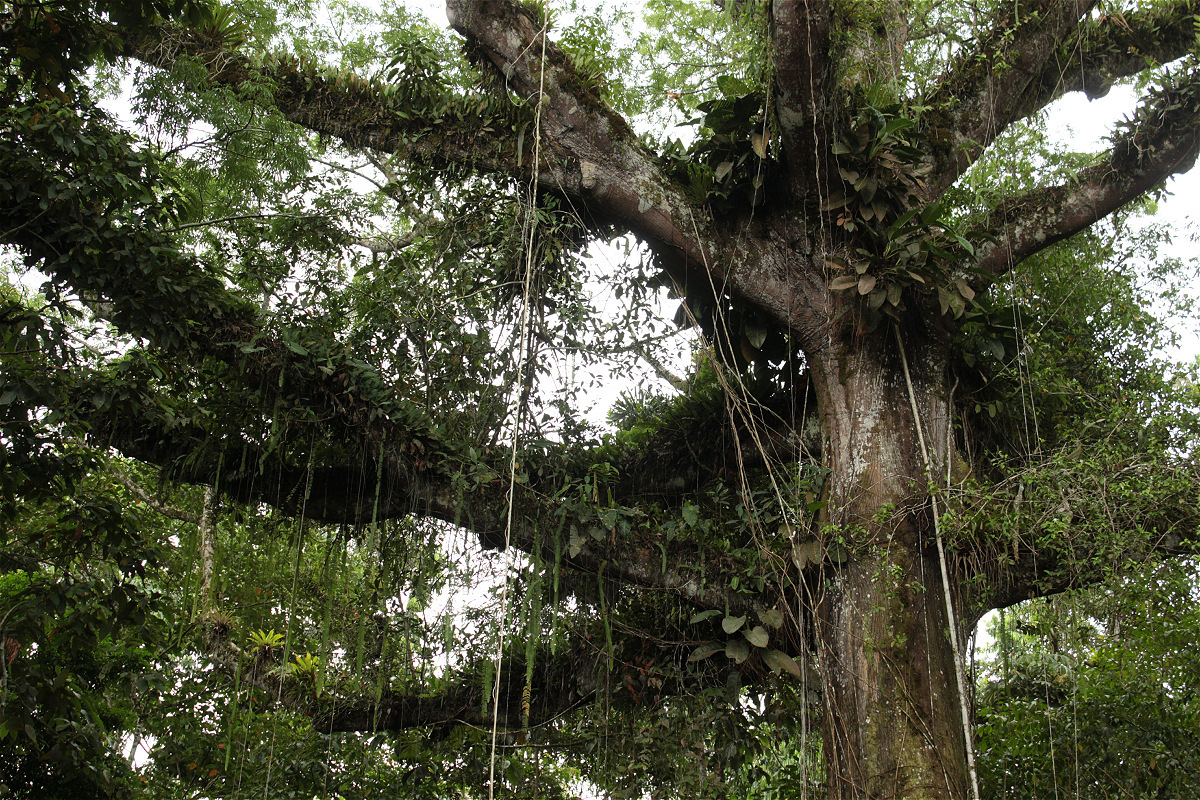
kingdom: Plantae
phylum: Tracheophyta
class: Magnoliopsida
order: Malvales
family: Malvaceae
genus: Ceiba
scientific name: Ceiba pentandra
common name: Kapok
